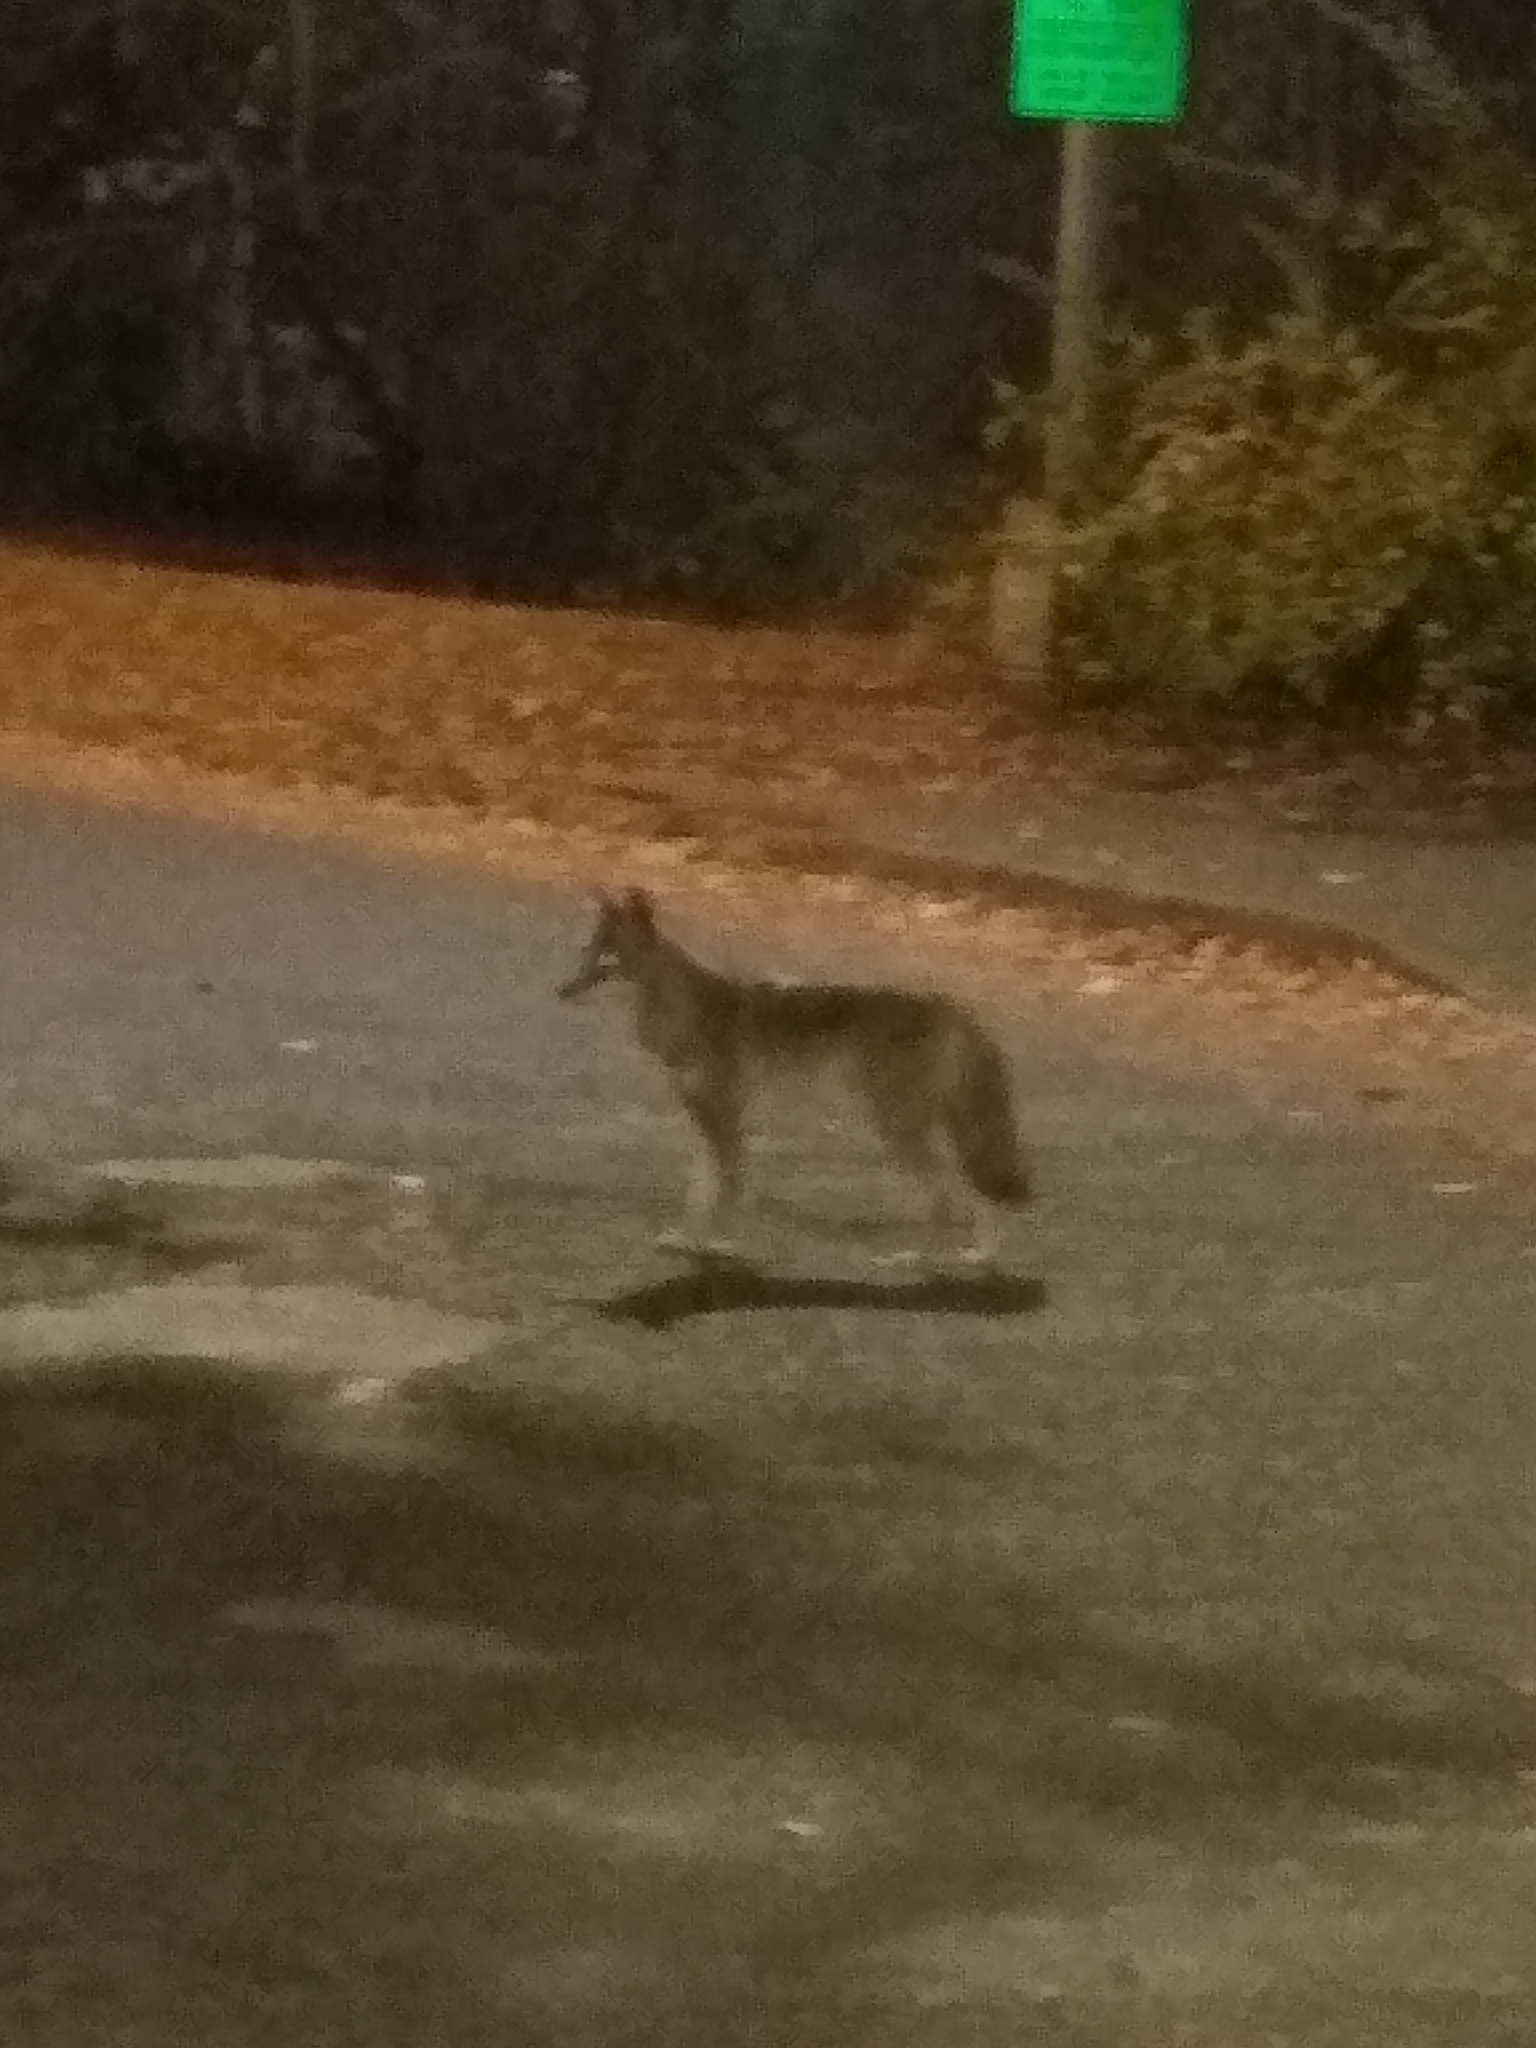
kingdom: Animalia
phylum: Chordata
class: Mammalia
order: Carnivora
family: Canidae
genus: Canis
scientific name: Canis latrans
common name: Coyote
